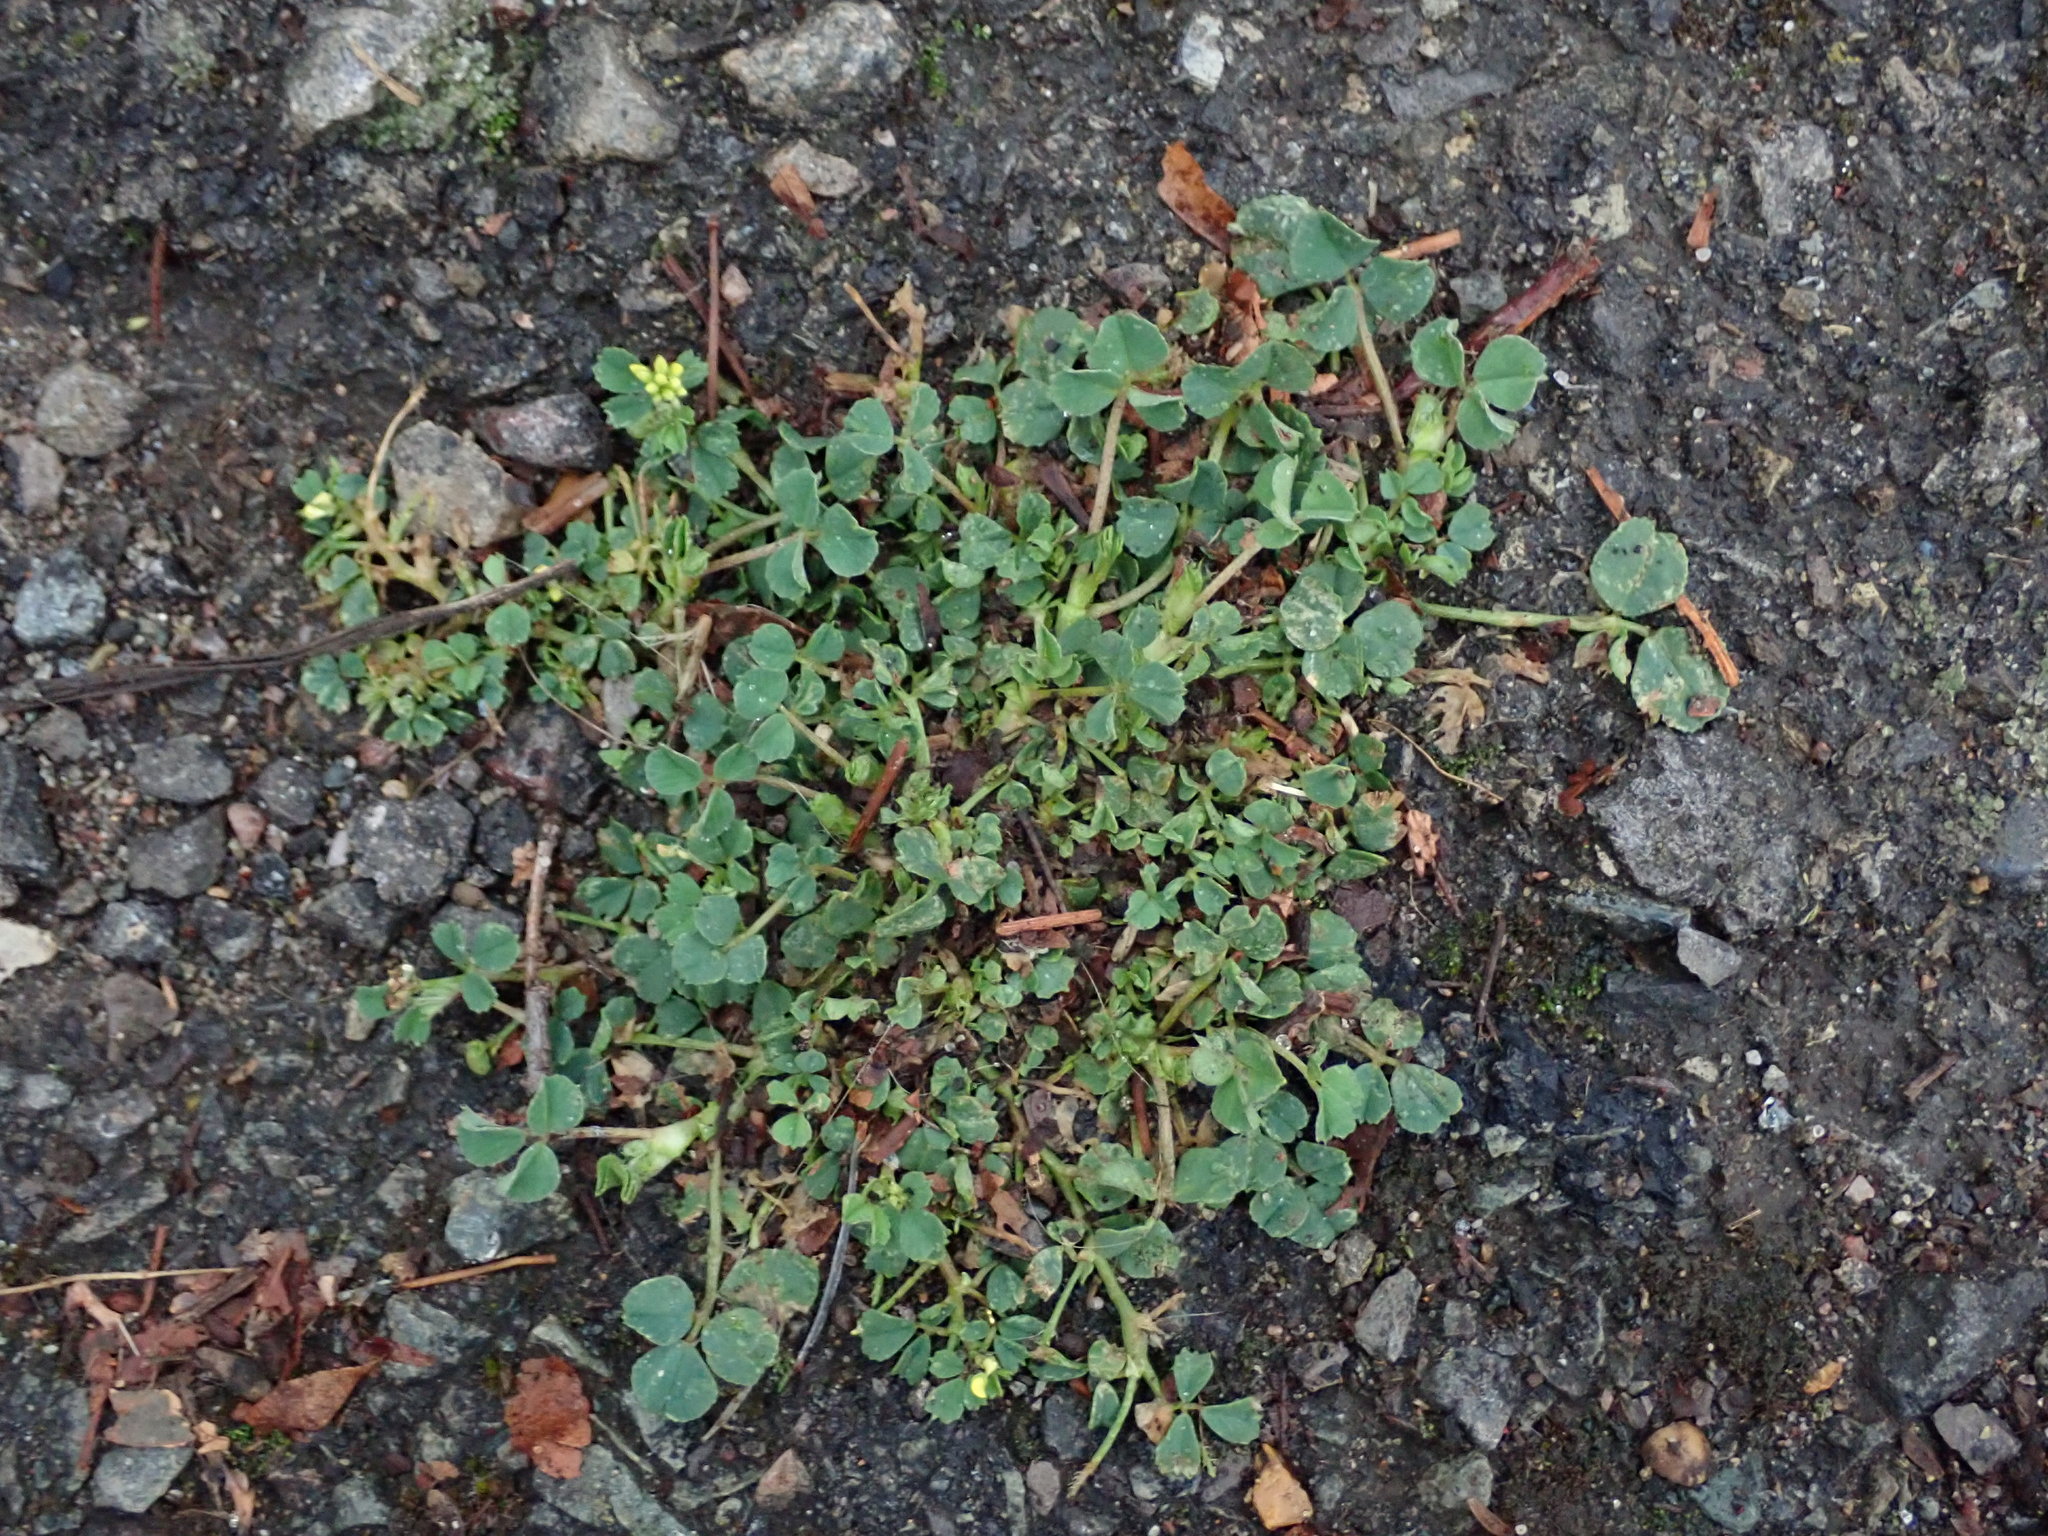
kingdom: Plantae
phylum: Tracheophyta
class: Magnoliopsida
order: Fabales
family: Fabaceae
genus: Medicago
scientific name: Medicago lupulina
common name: Black medick
